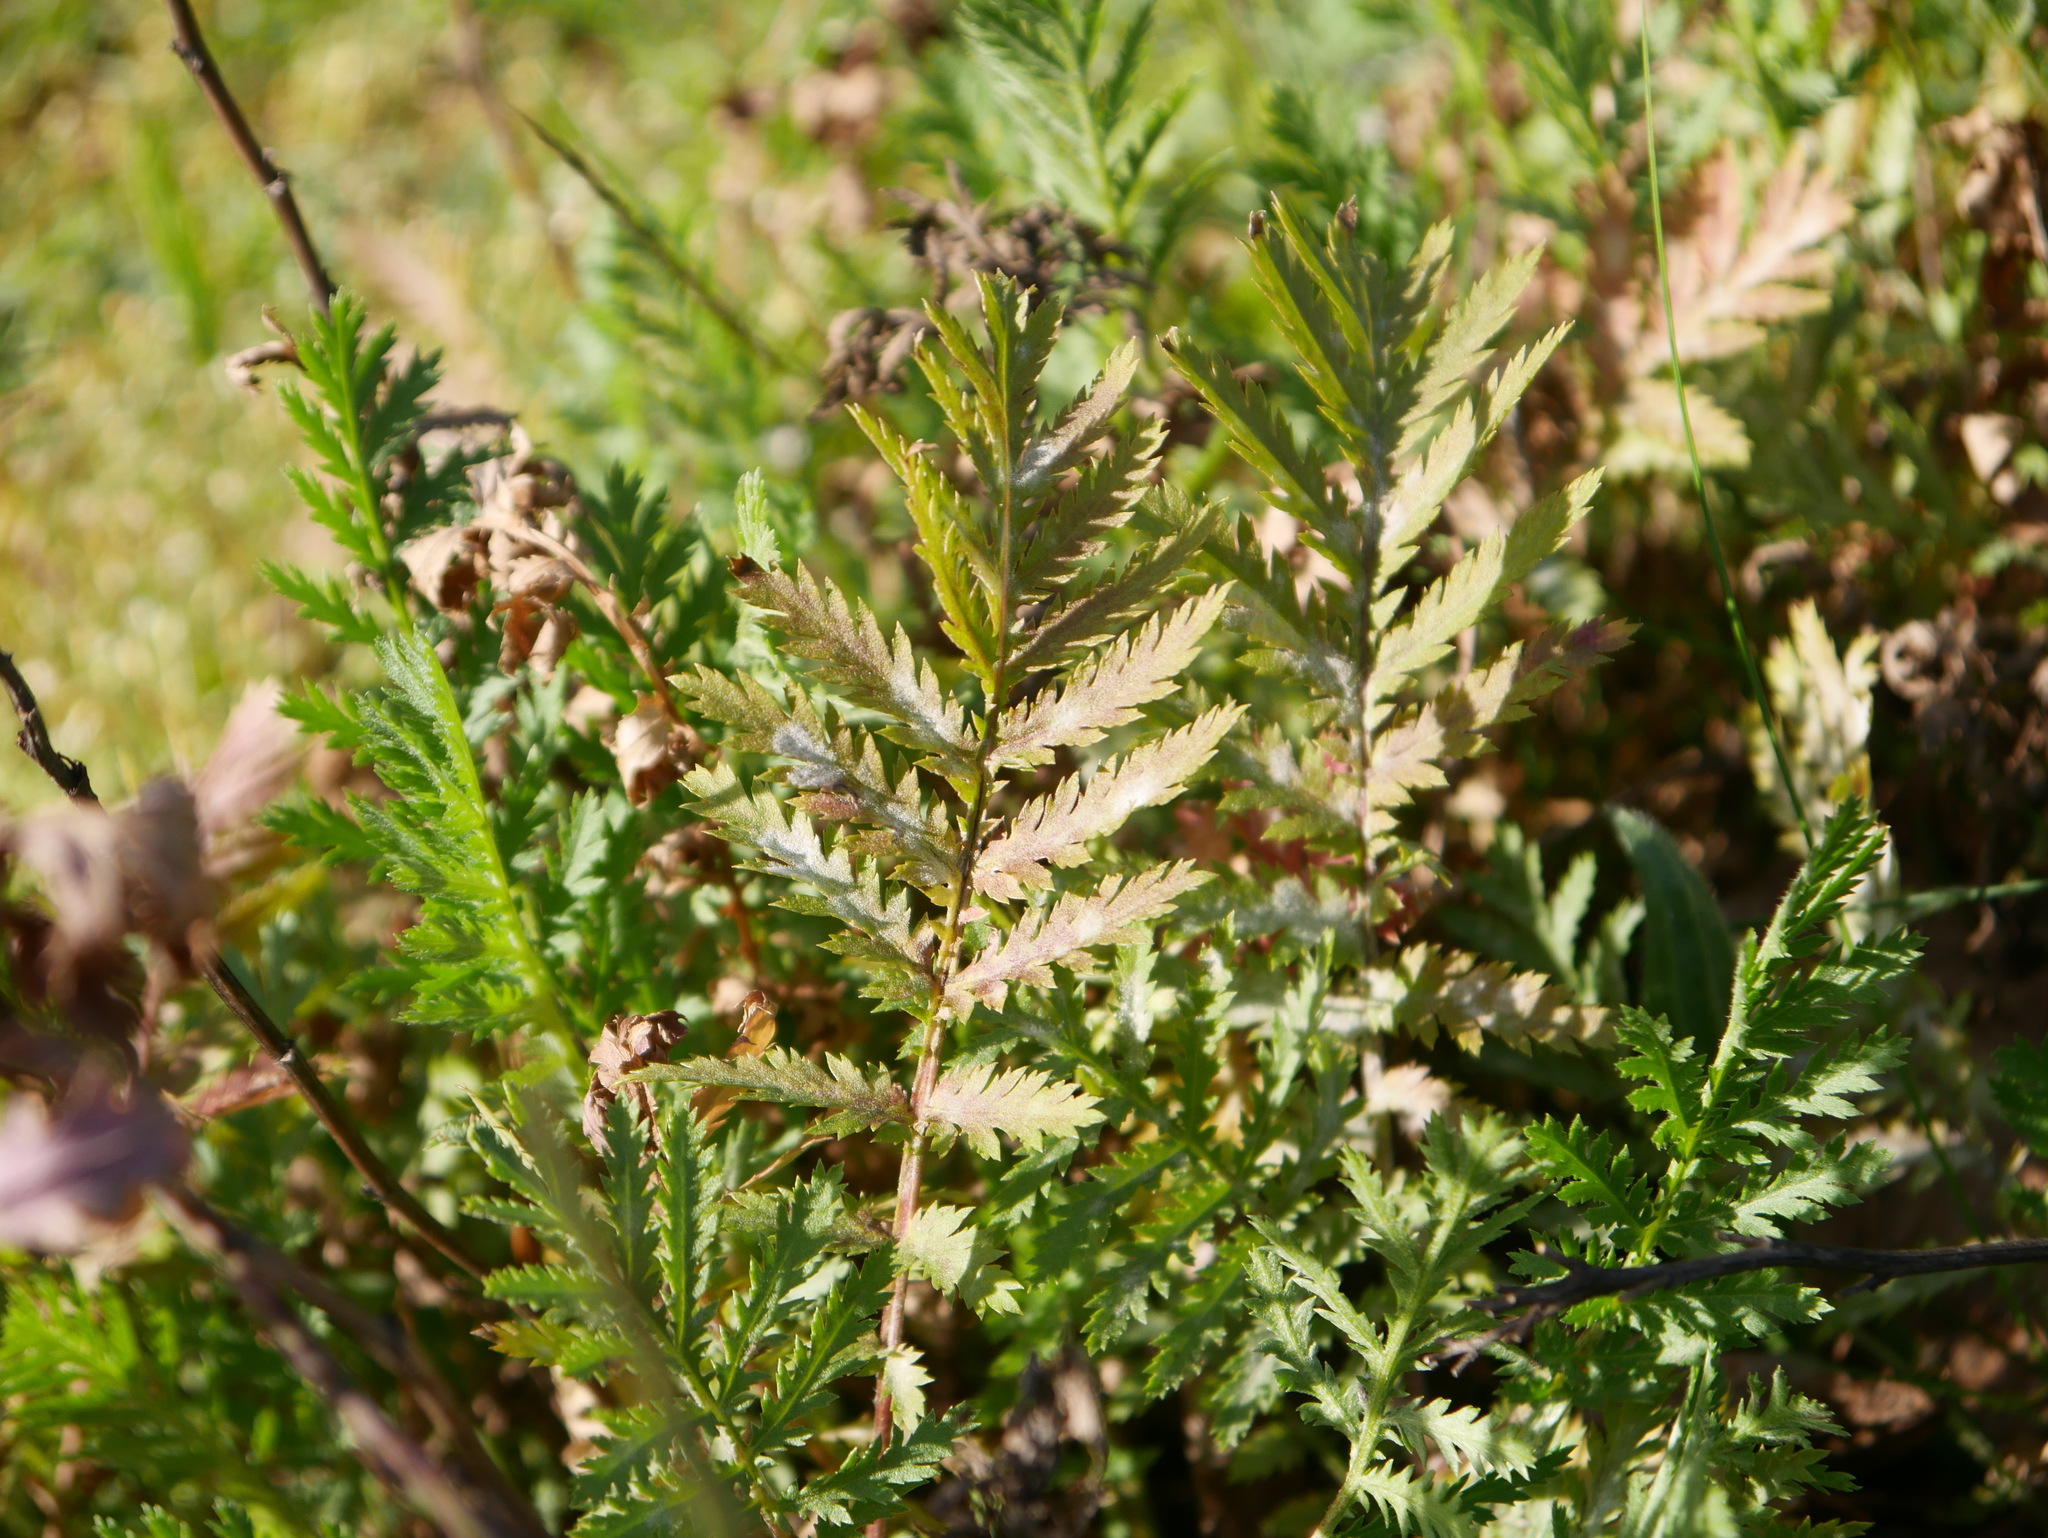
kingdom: Plantae
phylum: Tracheophyta
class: Magnoliopsida
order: Asterales
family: Asteraceae
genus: Tanacetum
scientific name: Tanacetum vulgare
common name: Common tansy
